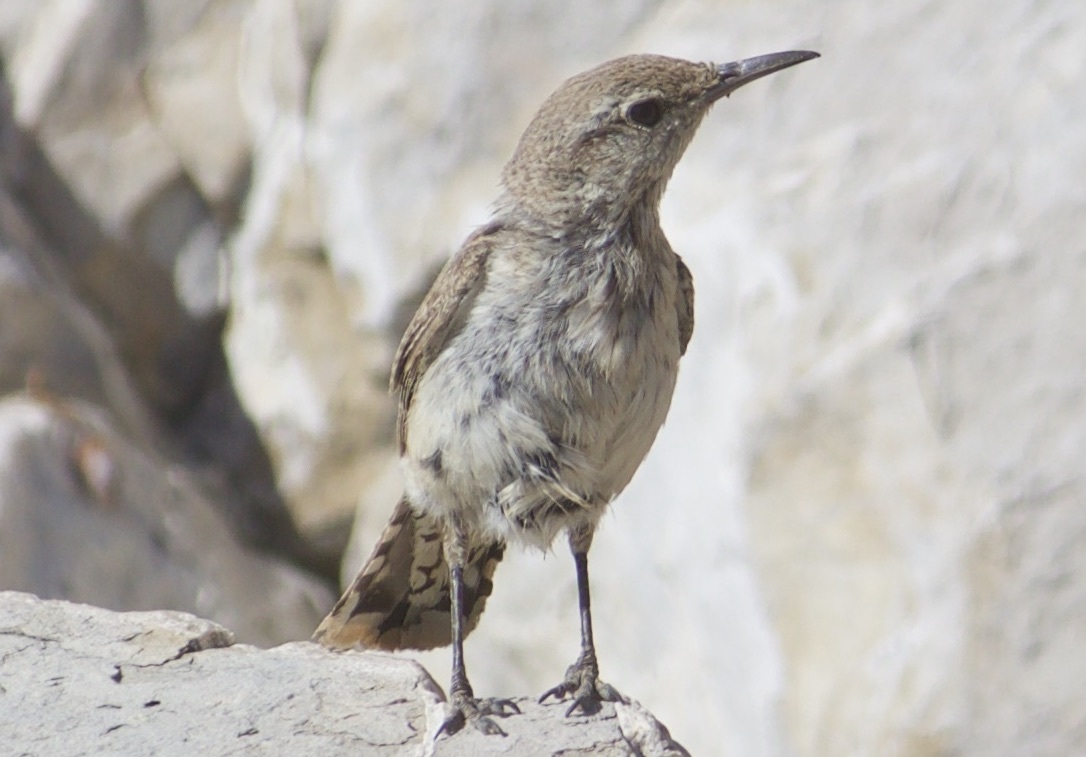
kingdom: Animalia
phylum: Chordata
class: Aves
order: Passeriformes
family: Troglodytidae
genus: Salpinctes
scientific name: Salpinctes obsoletus
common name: Rock wren
